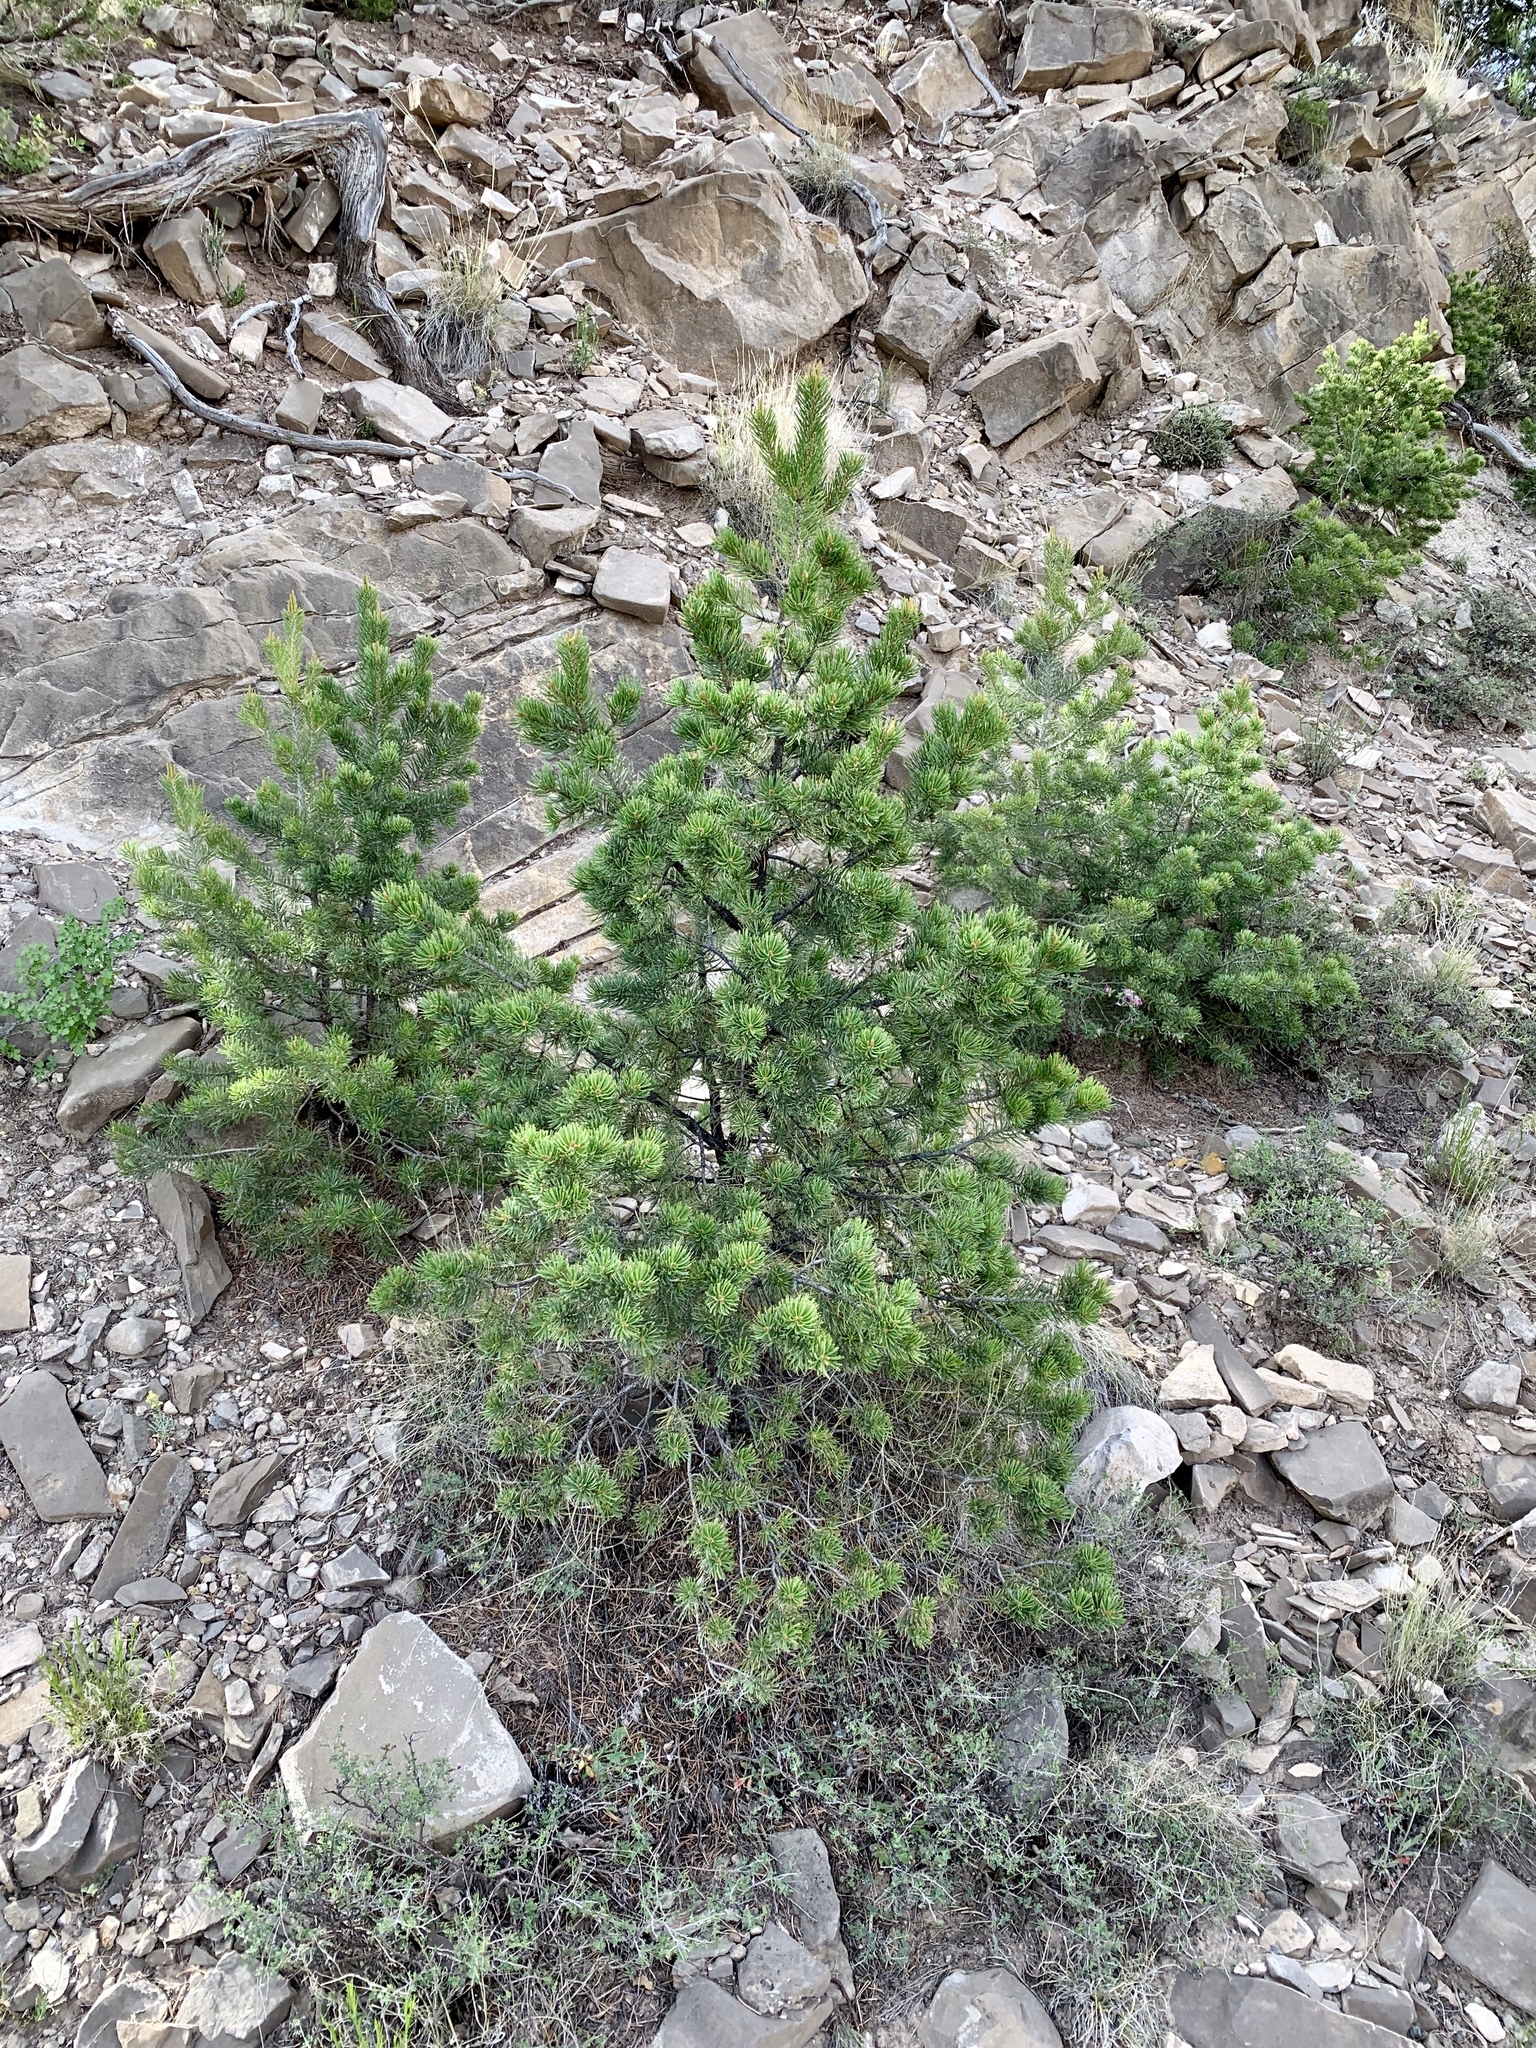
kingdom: Plantae
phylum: Tracheophyta
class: Pinopsida
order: Pinales
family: Pinaceae
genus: Pinus
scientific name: Pinus edulis
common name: Colorado pinyon
